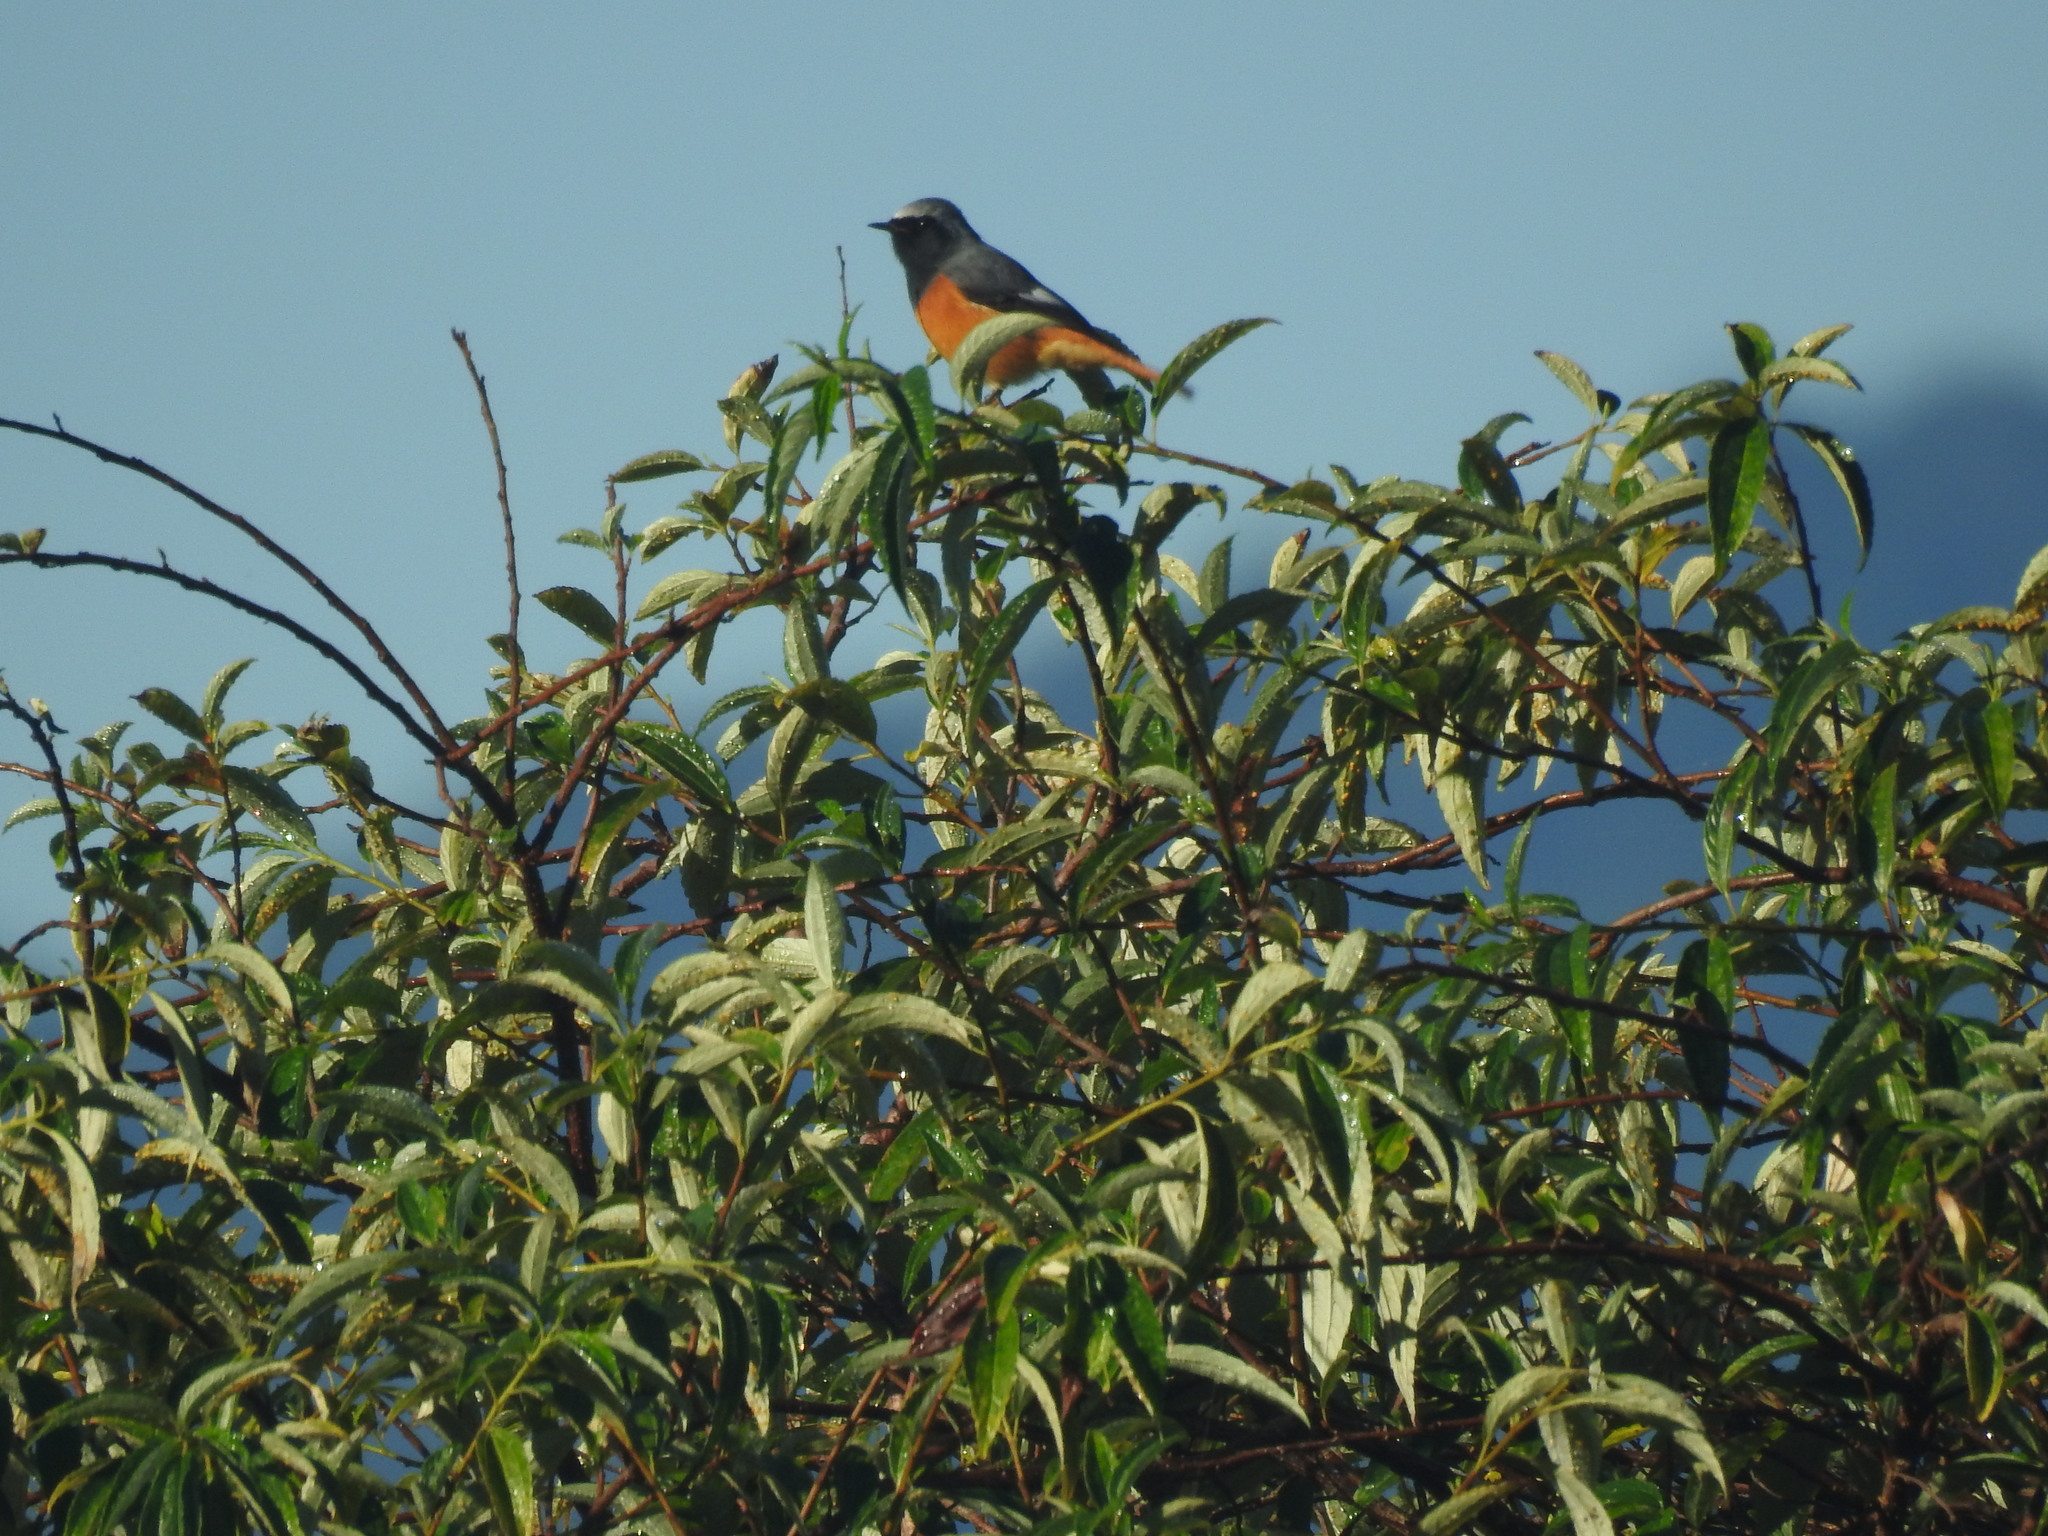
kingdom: Animalia
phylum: Chordata
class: Aves
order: Passeriformes
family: Muscicapidae
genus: Phoenicurus
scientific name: Phoenicurus hodgsoni
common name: Hodgson's redstart
